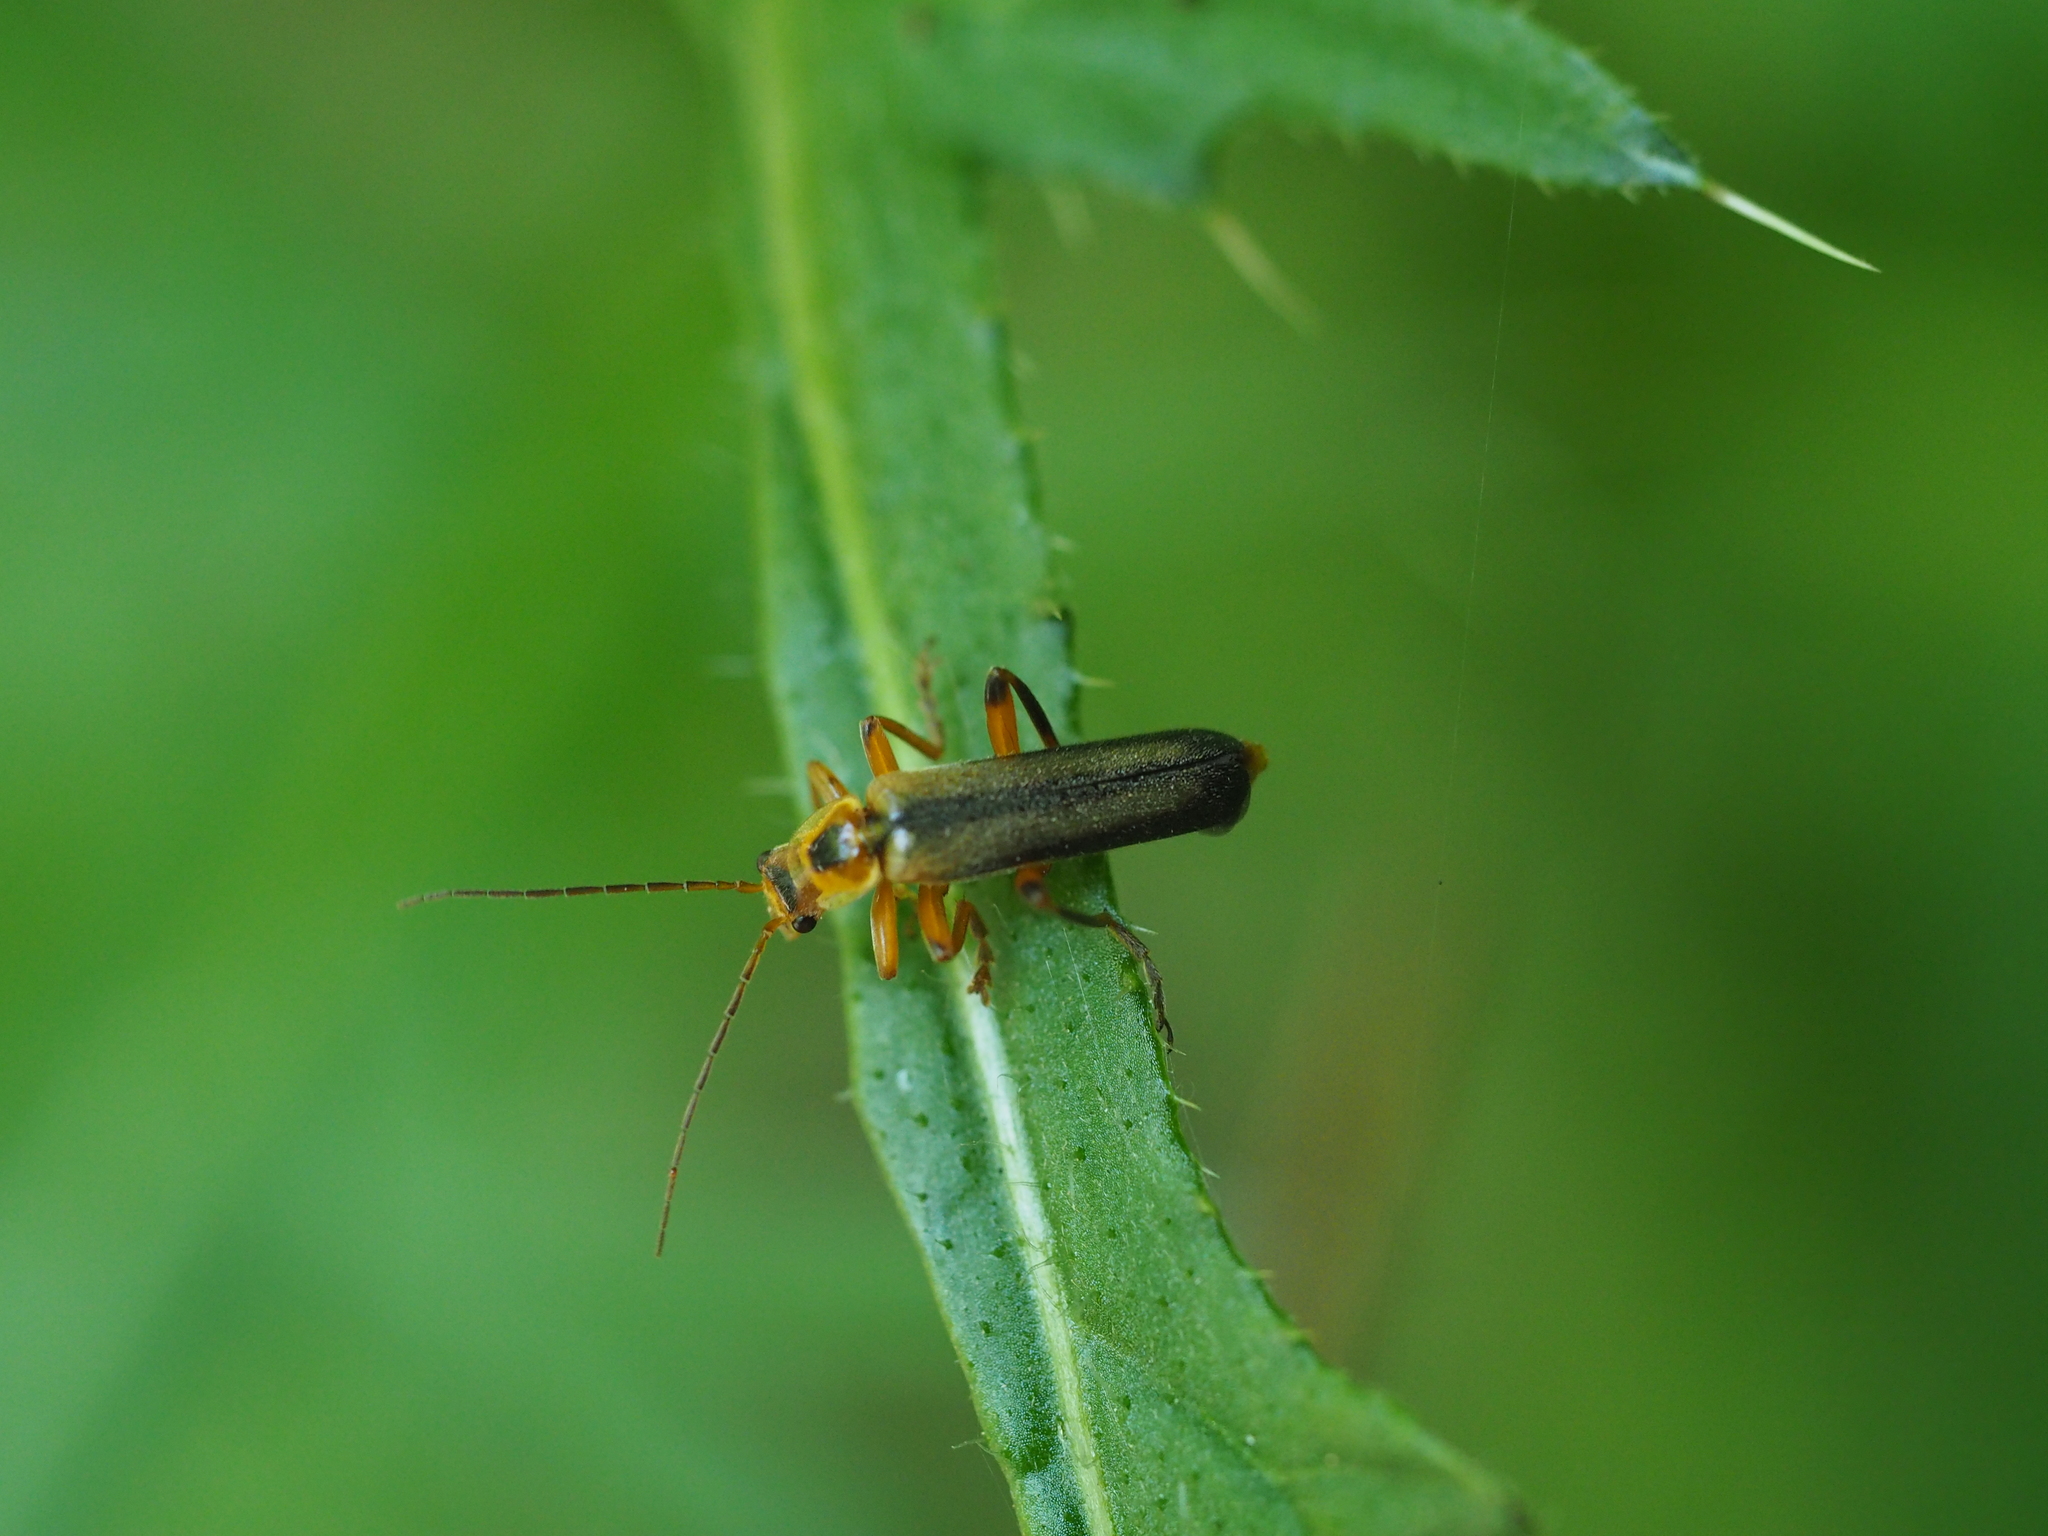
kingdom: Animalia
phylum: Arthropoda
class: Insecta
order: Coleoptera
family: Cantharidae
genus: Metacantharis
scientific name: Metacantharis discoidea
